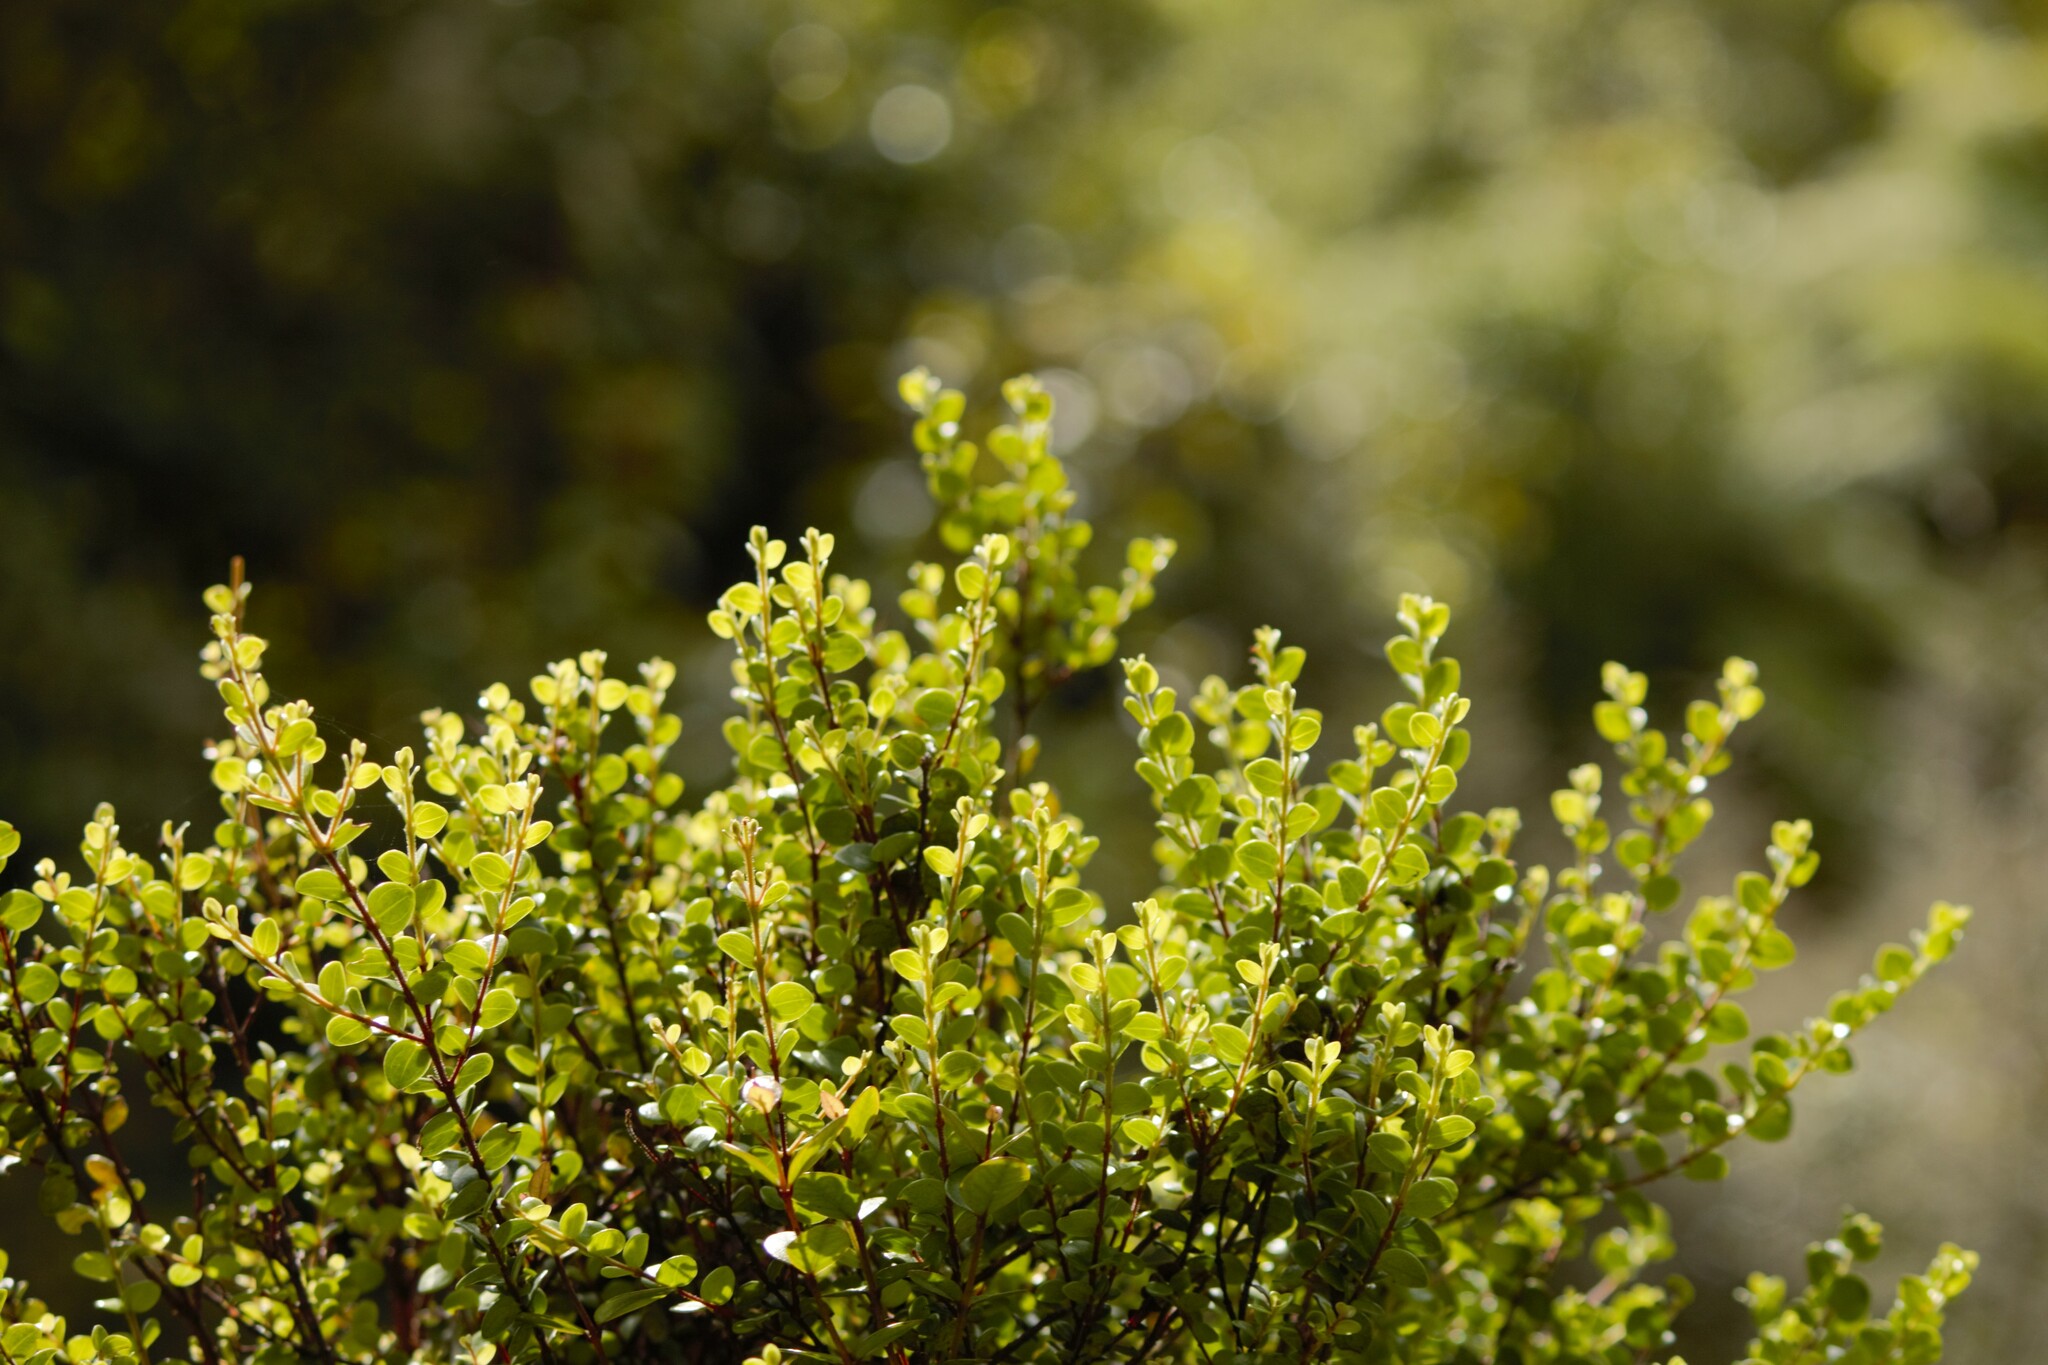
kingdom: Plantae
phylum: Tracheophyta
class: Magnoliopsida
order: Myrtales
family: Myrtaceae
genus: Metrosideros
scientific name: Metrosideros perforata
